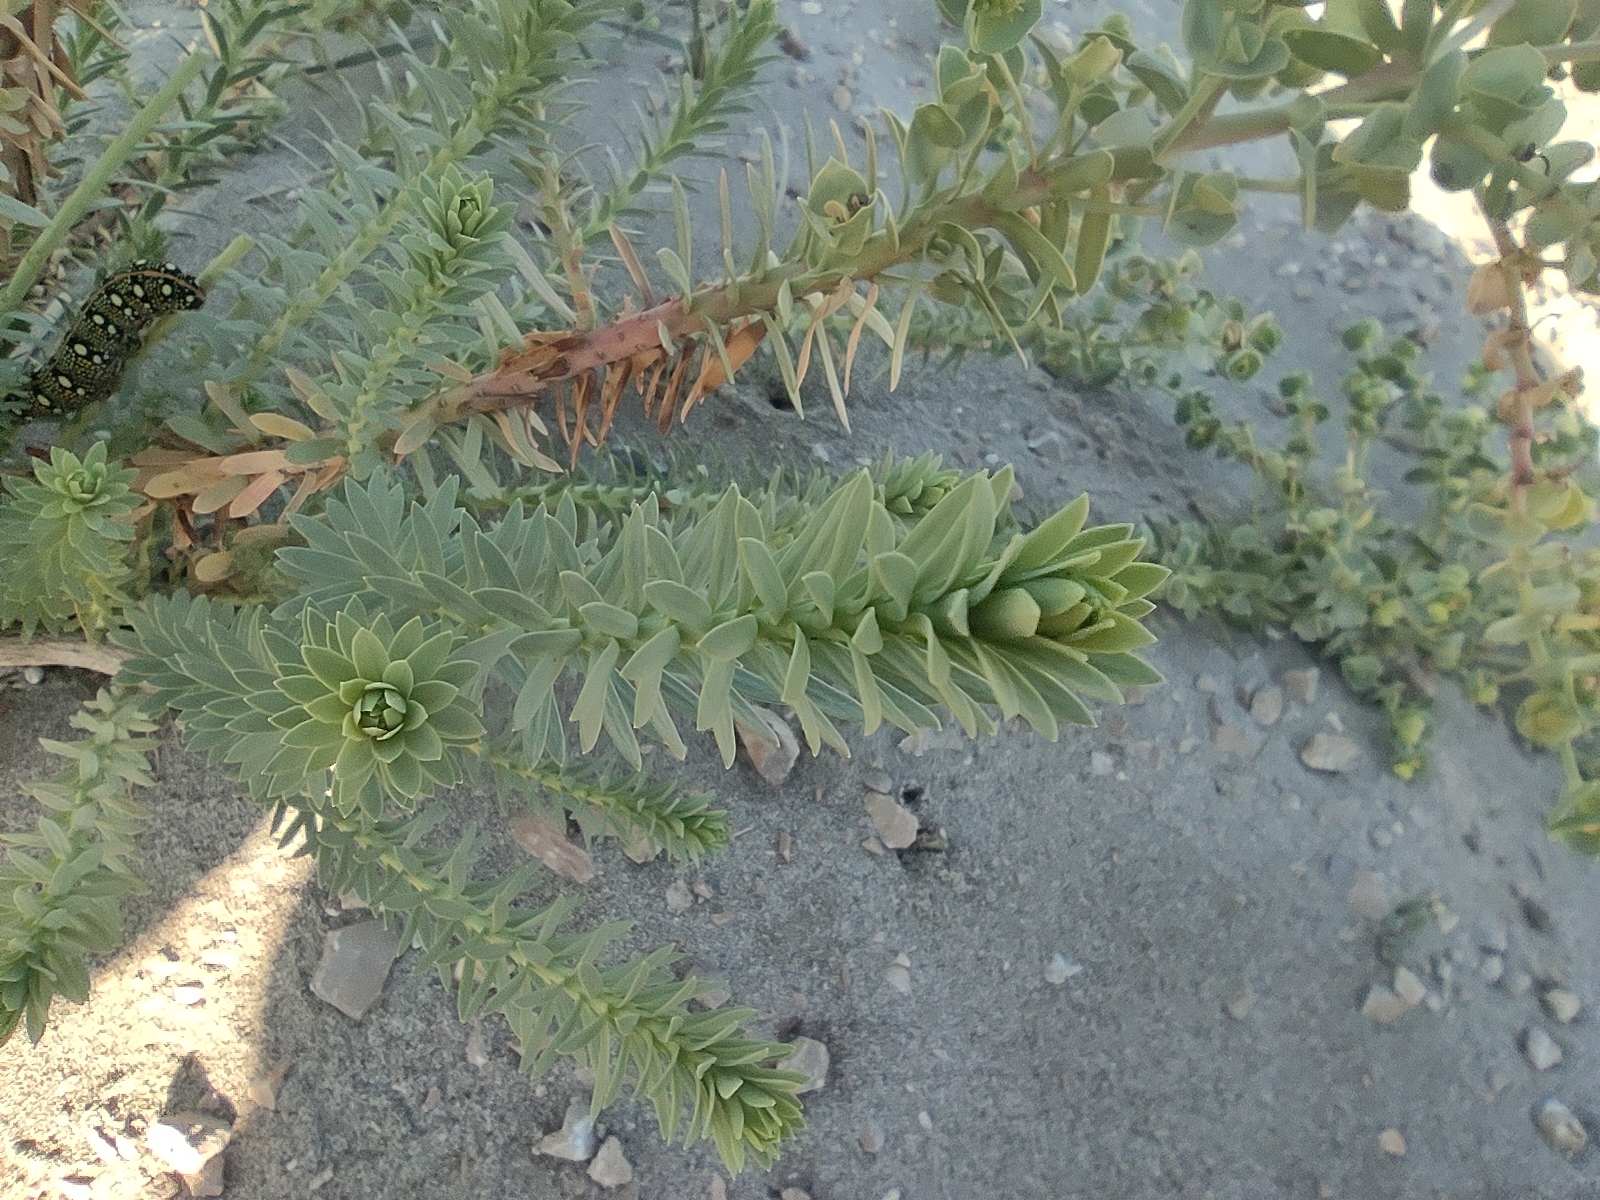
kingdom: Plantae
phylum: Tracheophyta
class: Magnoliopsida
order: Malpighiales
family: Euphorbiaceae
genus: Euphorbia
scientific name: Euphorbia paralias
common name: Sea spurge
